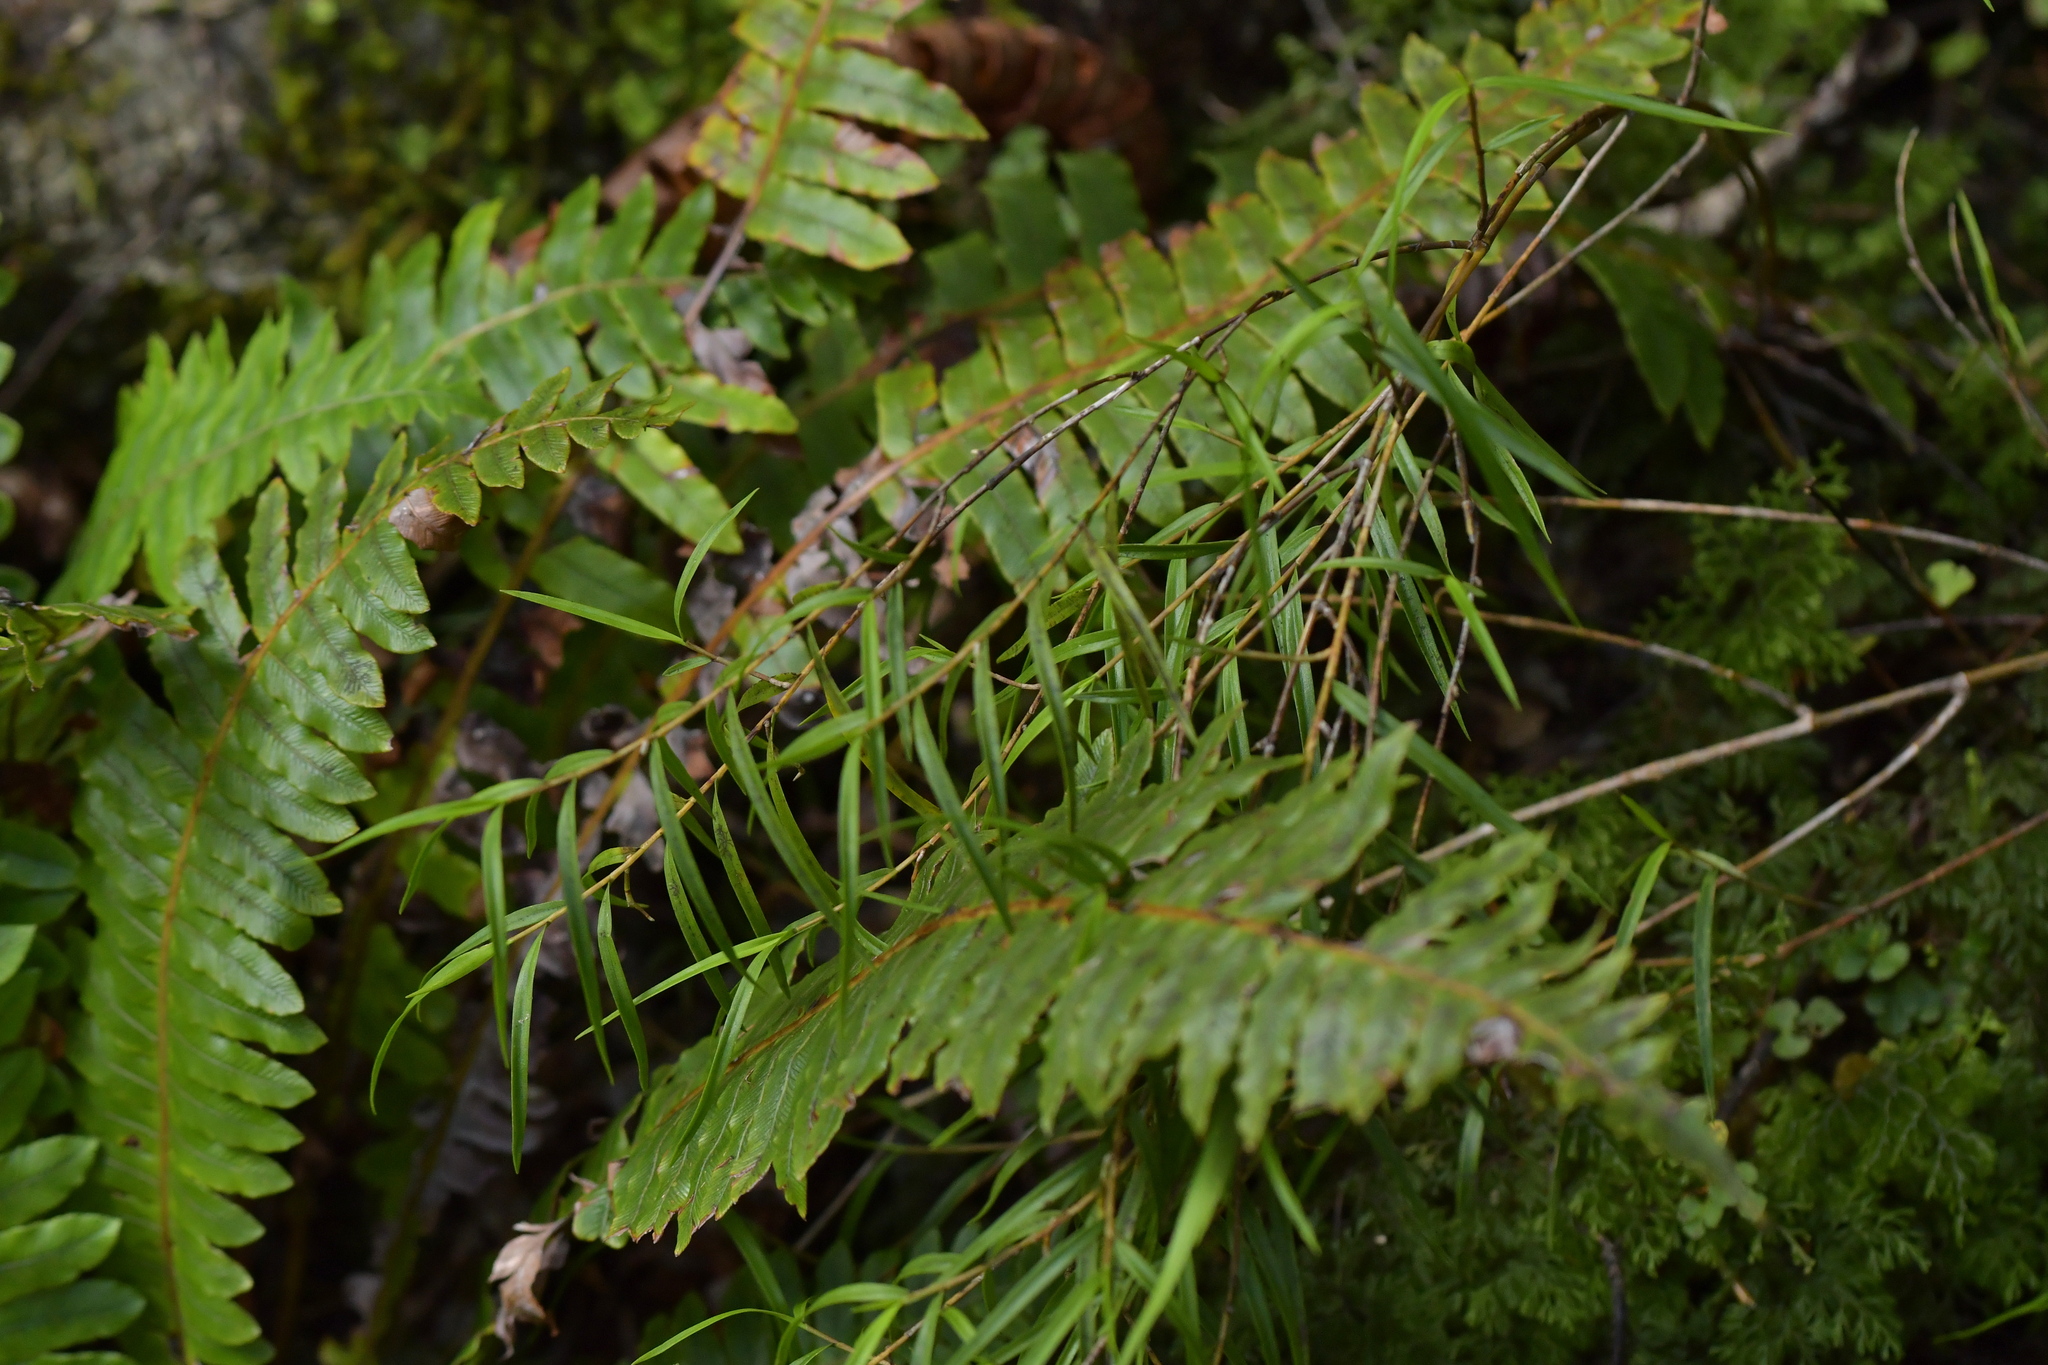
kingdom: Plantae
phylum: Tracheophyta
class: Liliopsida
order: Asparagales
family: Orchidaceae
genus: Dendrobium
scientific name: Dendrobium cunninghamii
